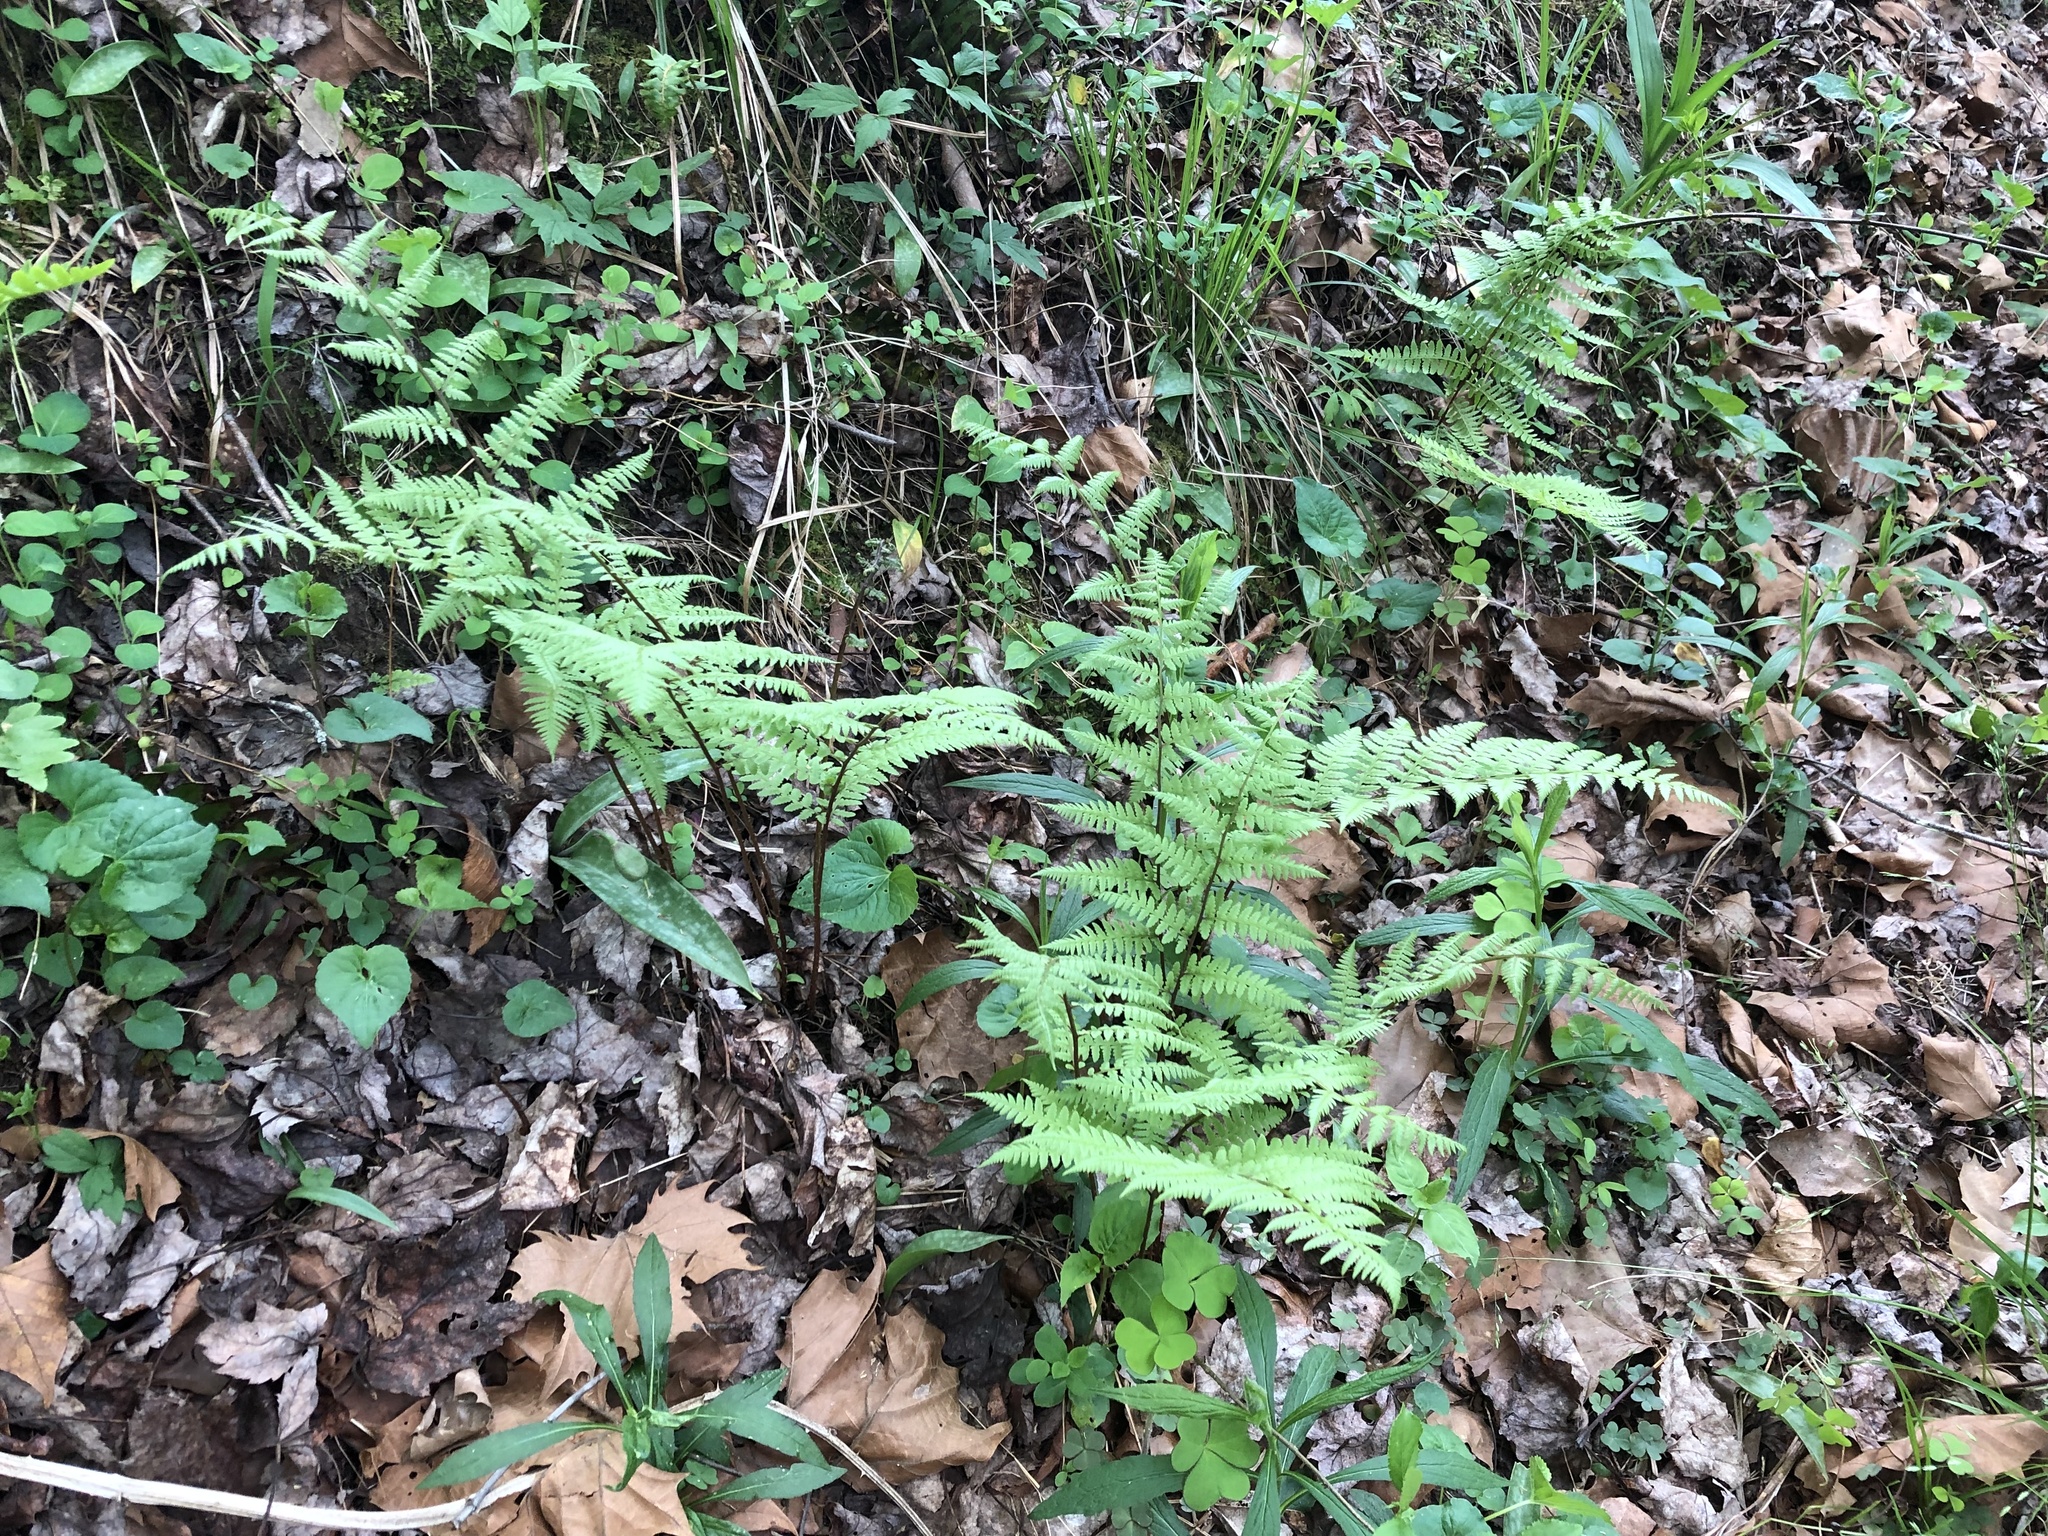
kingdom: Plantae
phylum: Tracheophyta
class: Polypodiopsida
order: Polypodiales
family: Athyriaceae
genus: Athyrium
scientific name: Athyrium asplenioides
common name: Southern lady fern
